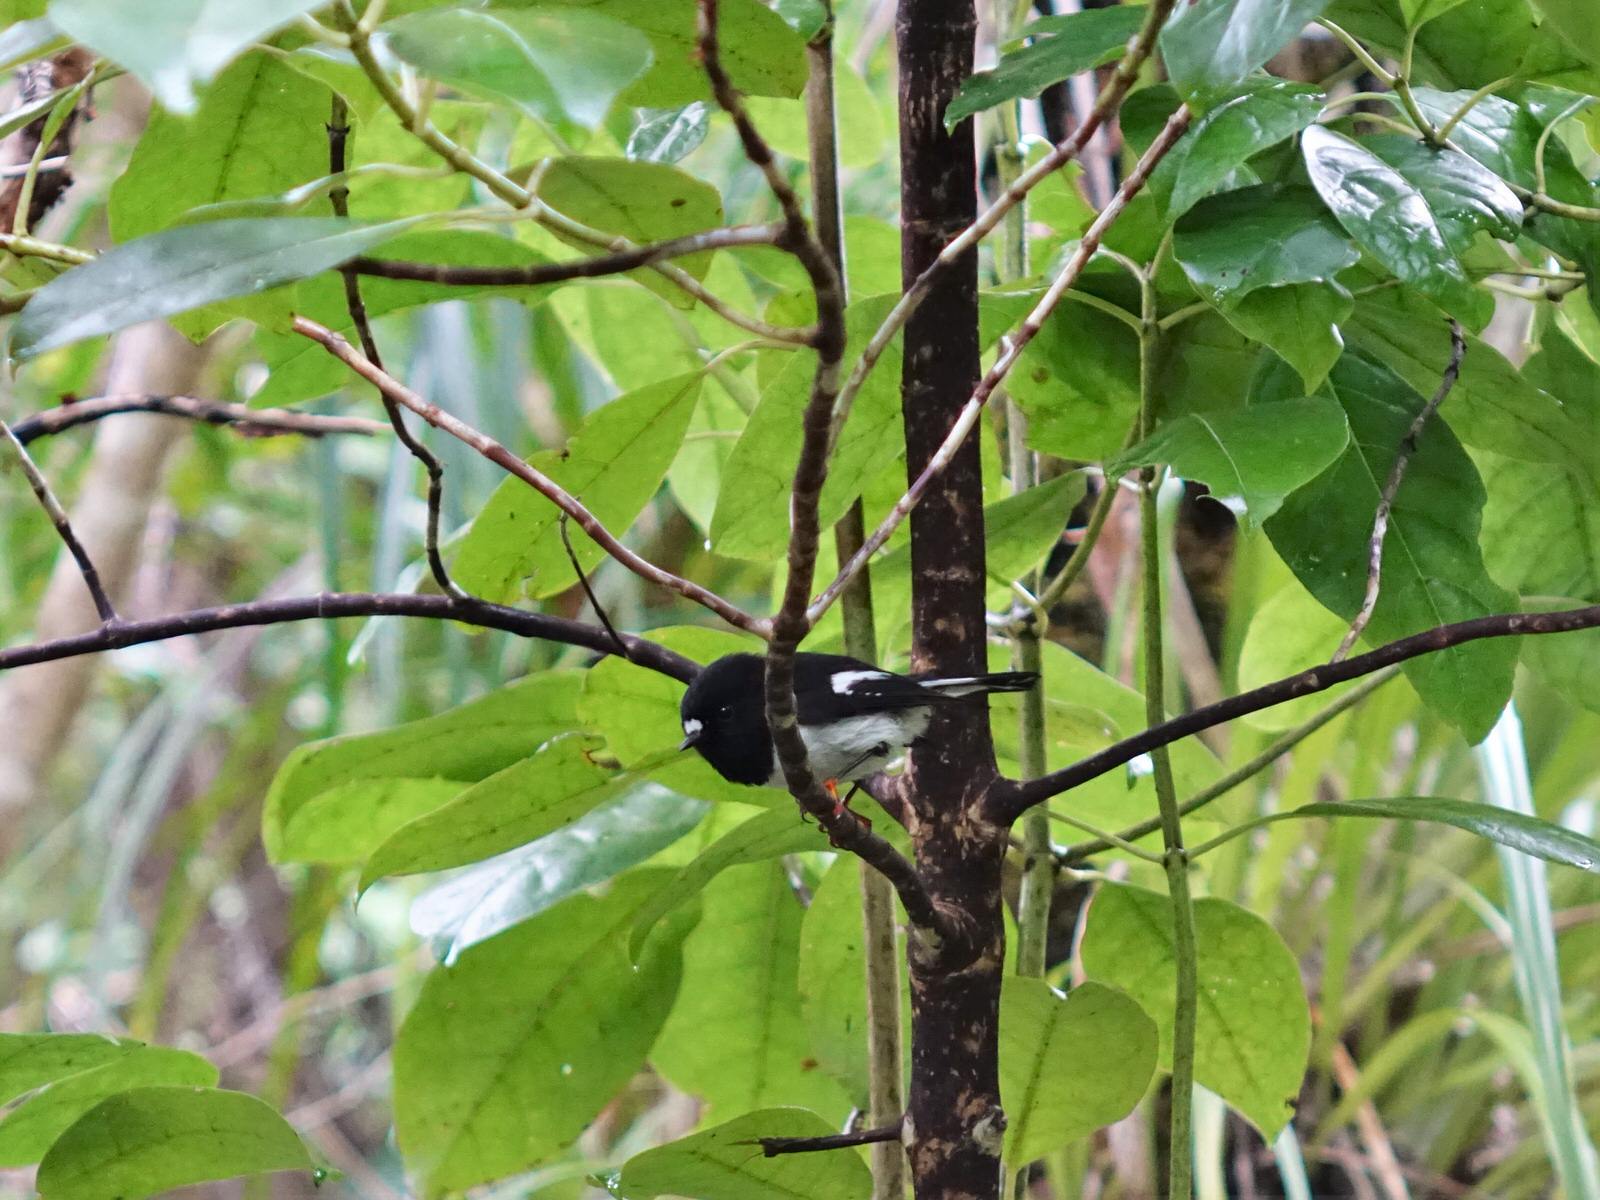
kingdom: Animalia
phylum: Chordata
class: Aves
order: Passeriformes
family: Petroicidae
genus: Petroica
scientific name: Petroica macrocephala
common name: Tomtit
